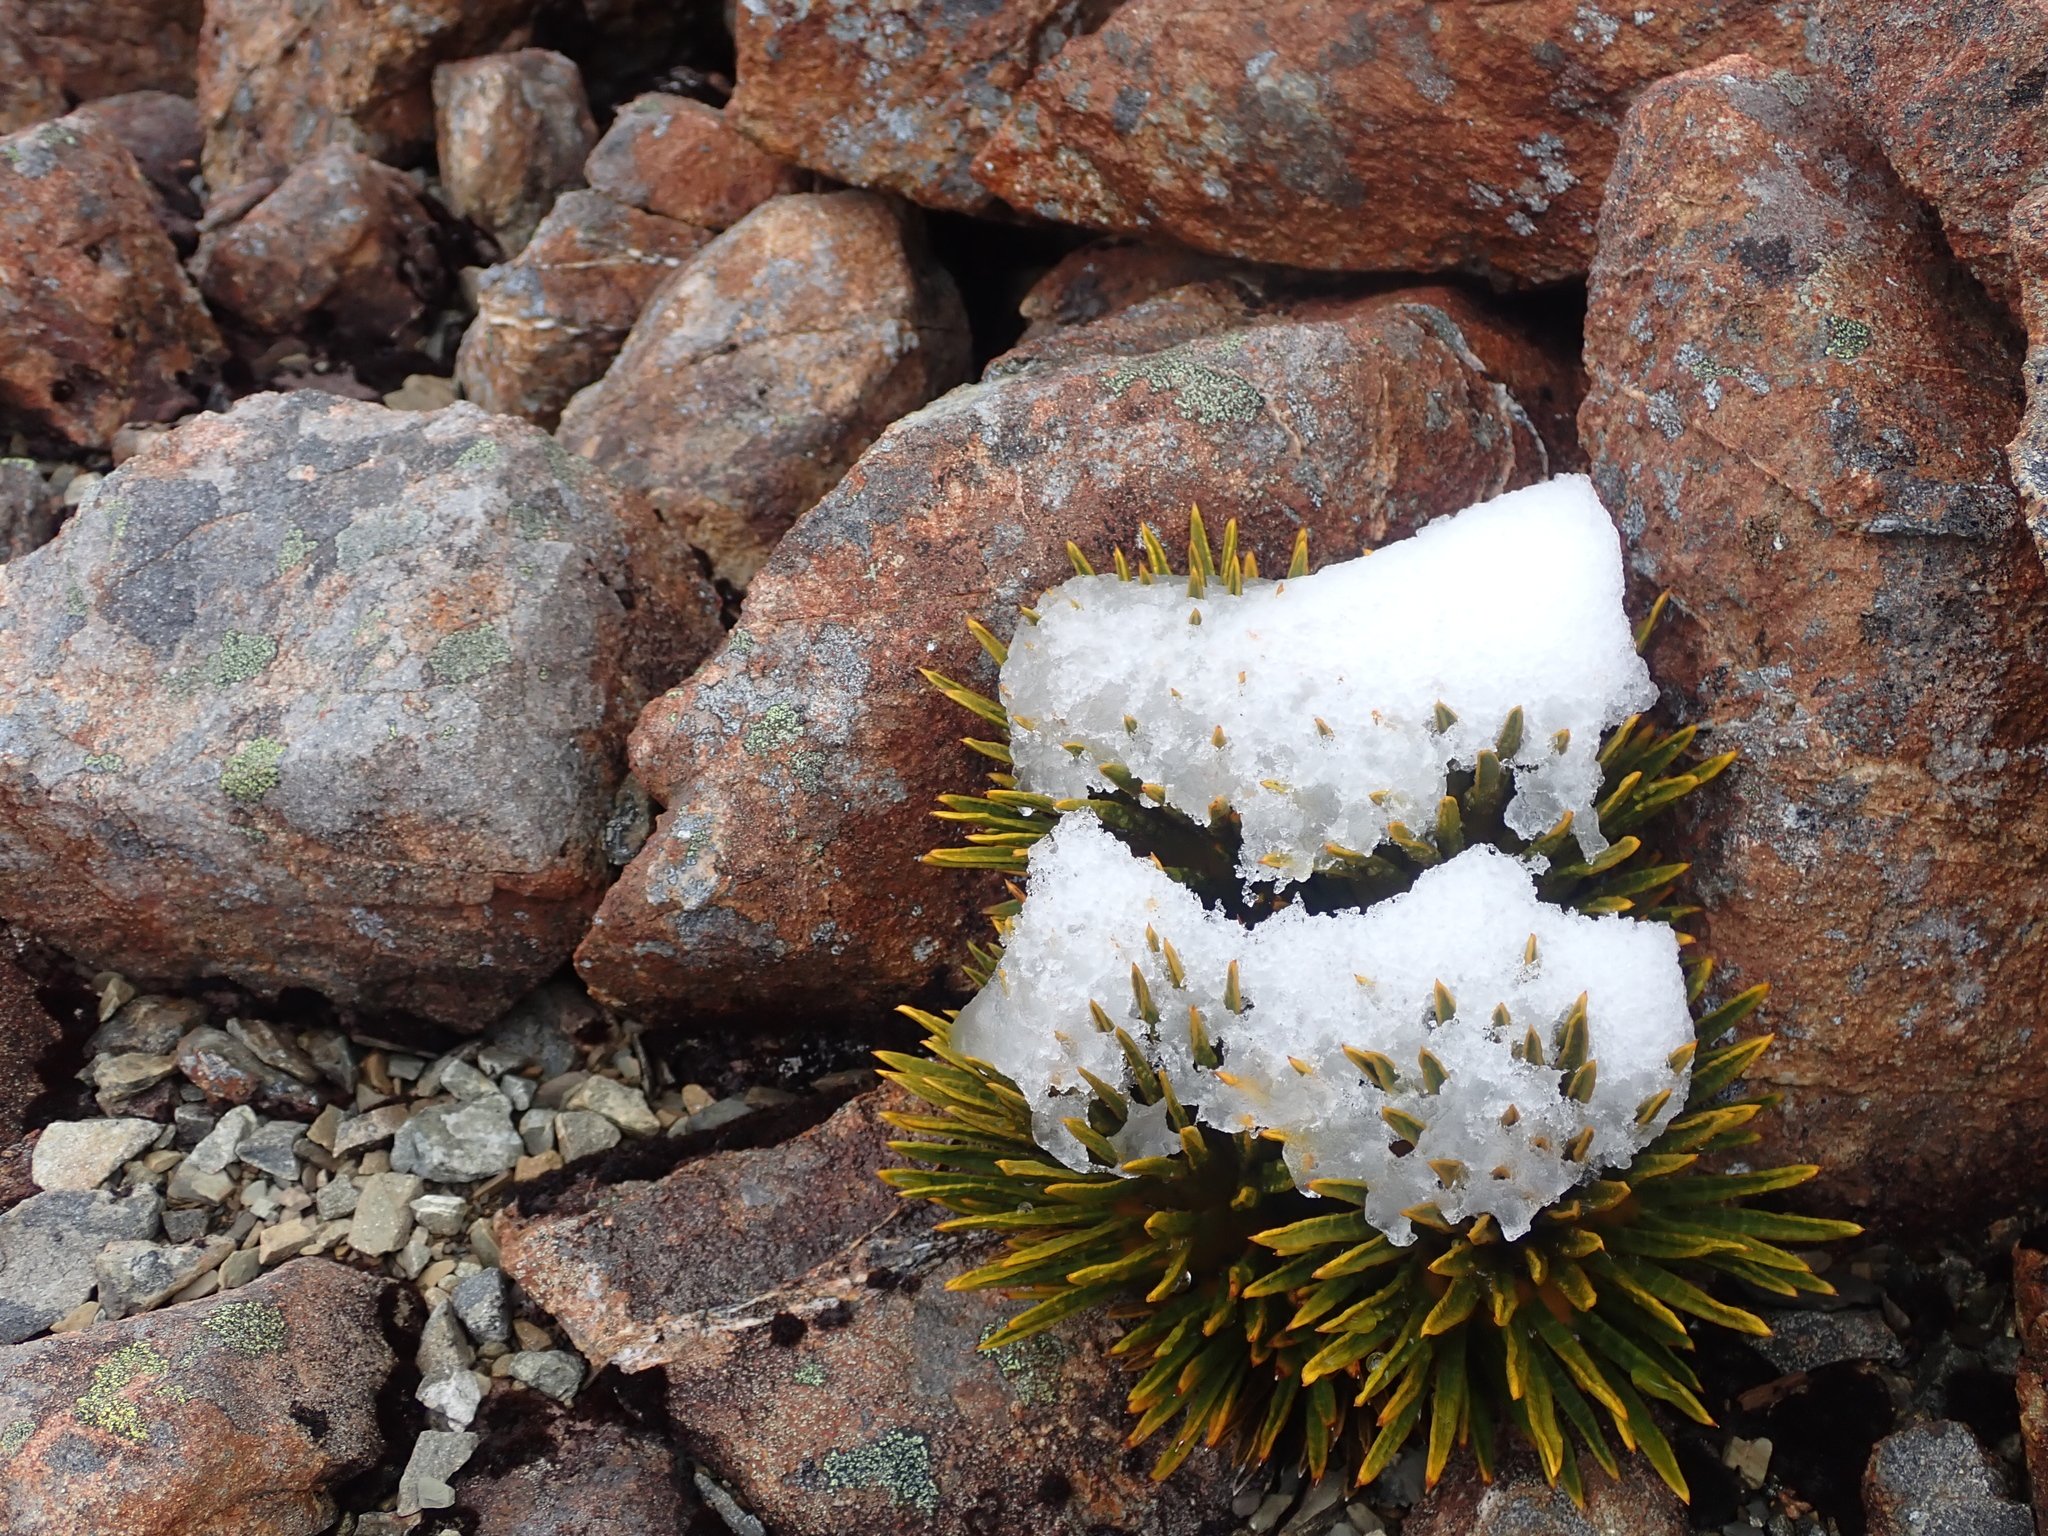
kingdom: Plantae
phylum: Tracheophyta
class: Magnoliopsida
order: Apiales
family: Apiaceae
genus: Aciphylla
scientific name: Aciphylla dobsonii
